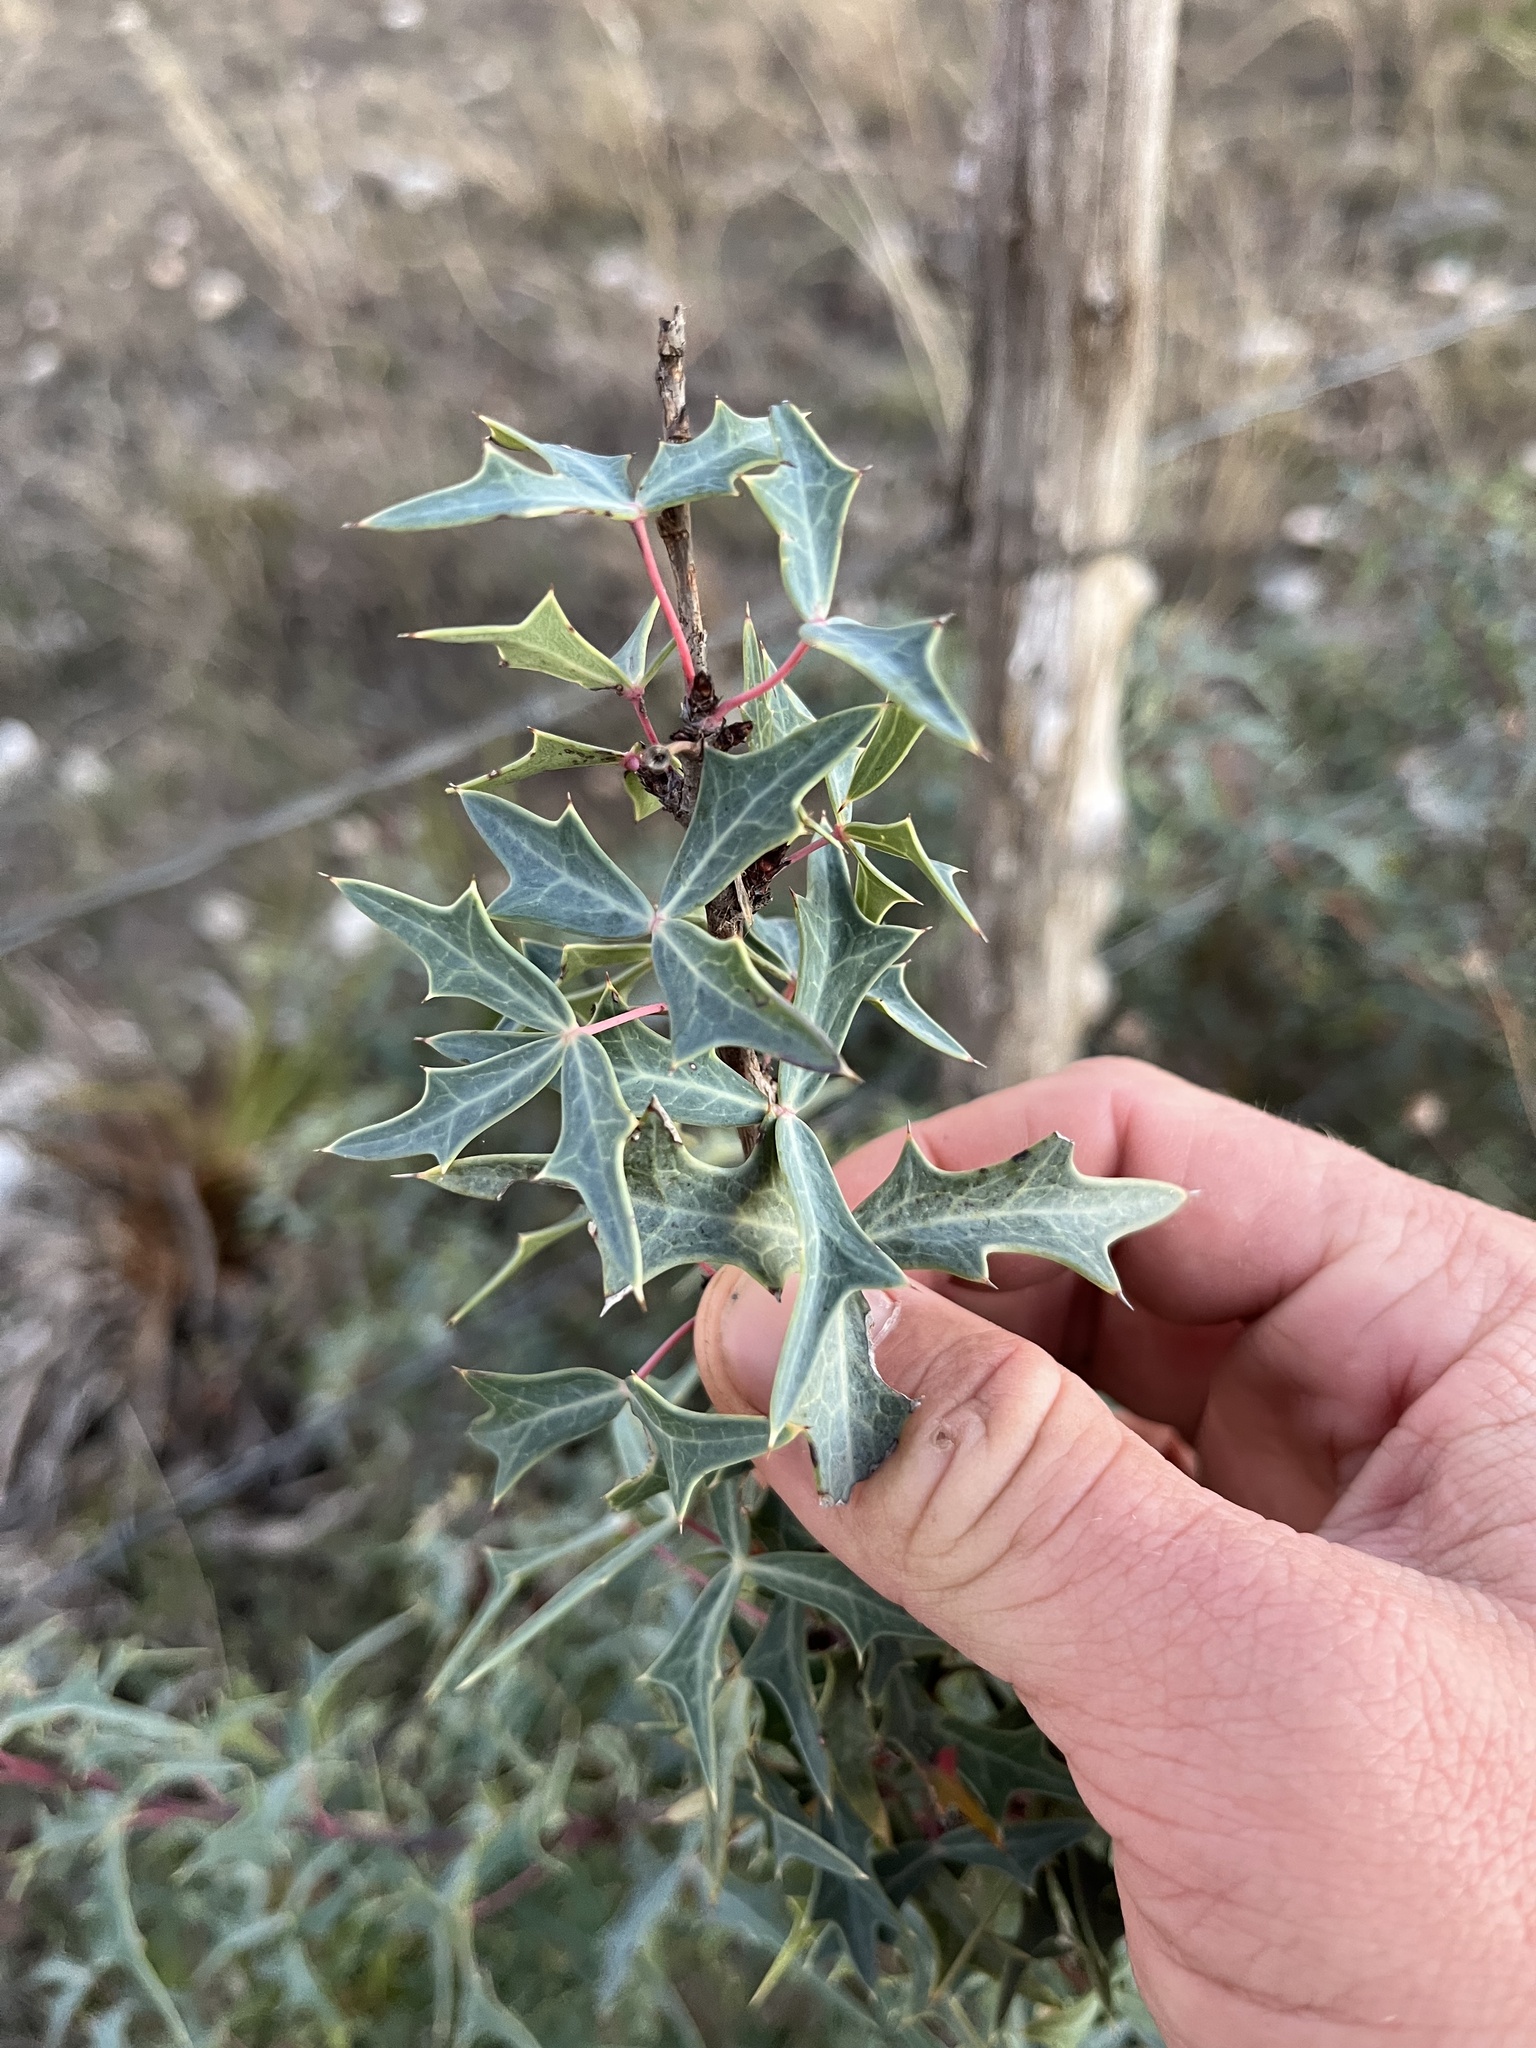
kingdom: Plantae
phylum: Tracheophyta
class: Magnoliopsida
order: Ranunculales
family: Berberidaceae
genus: Alloberberis
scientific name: Alloberberis trifoliolata
